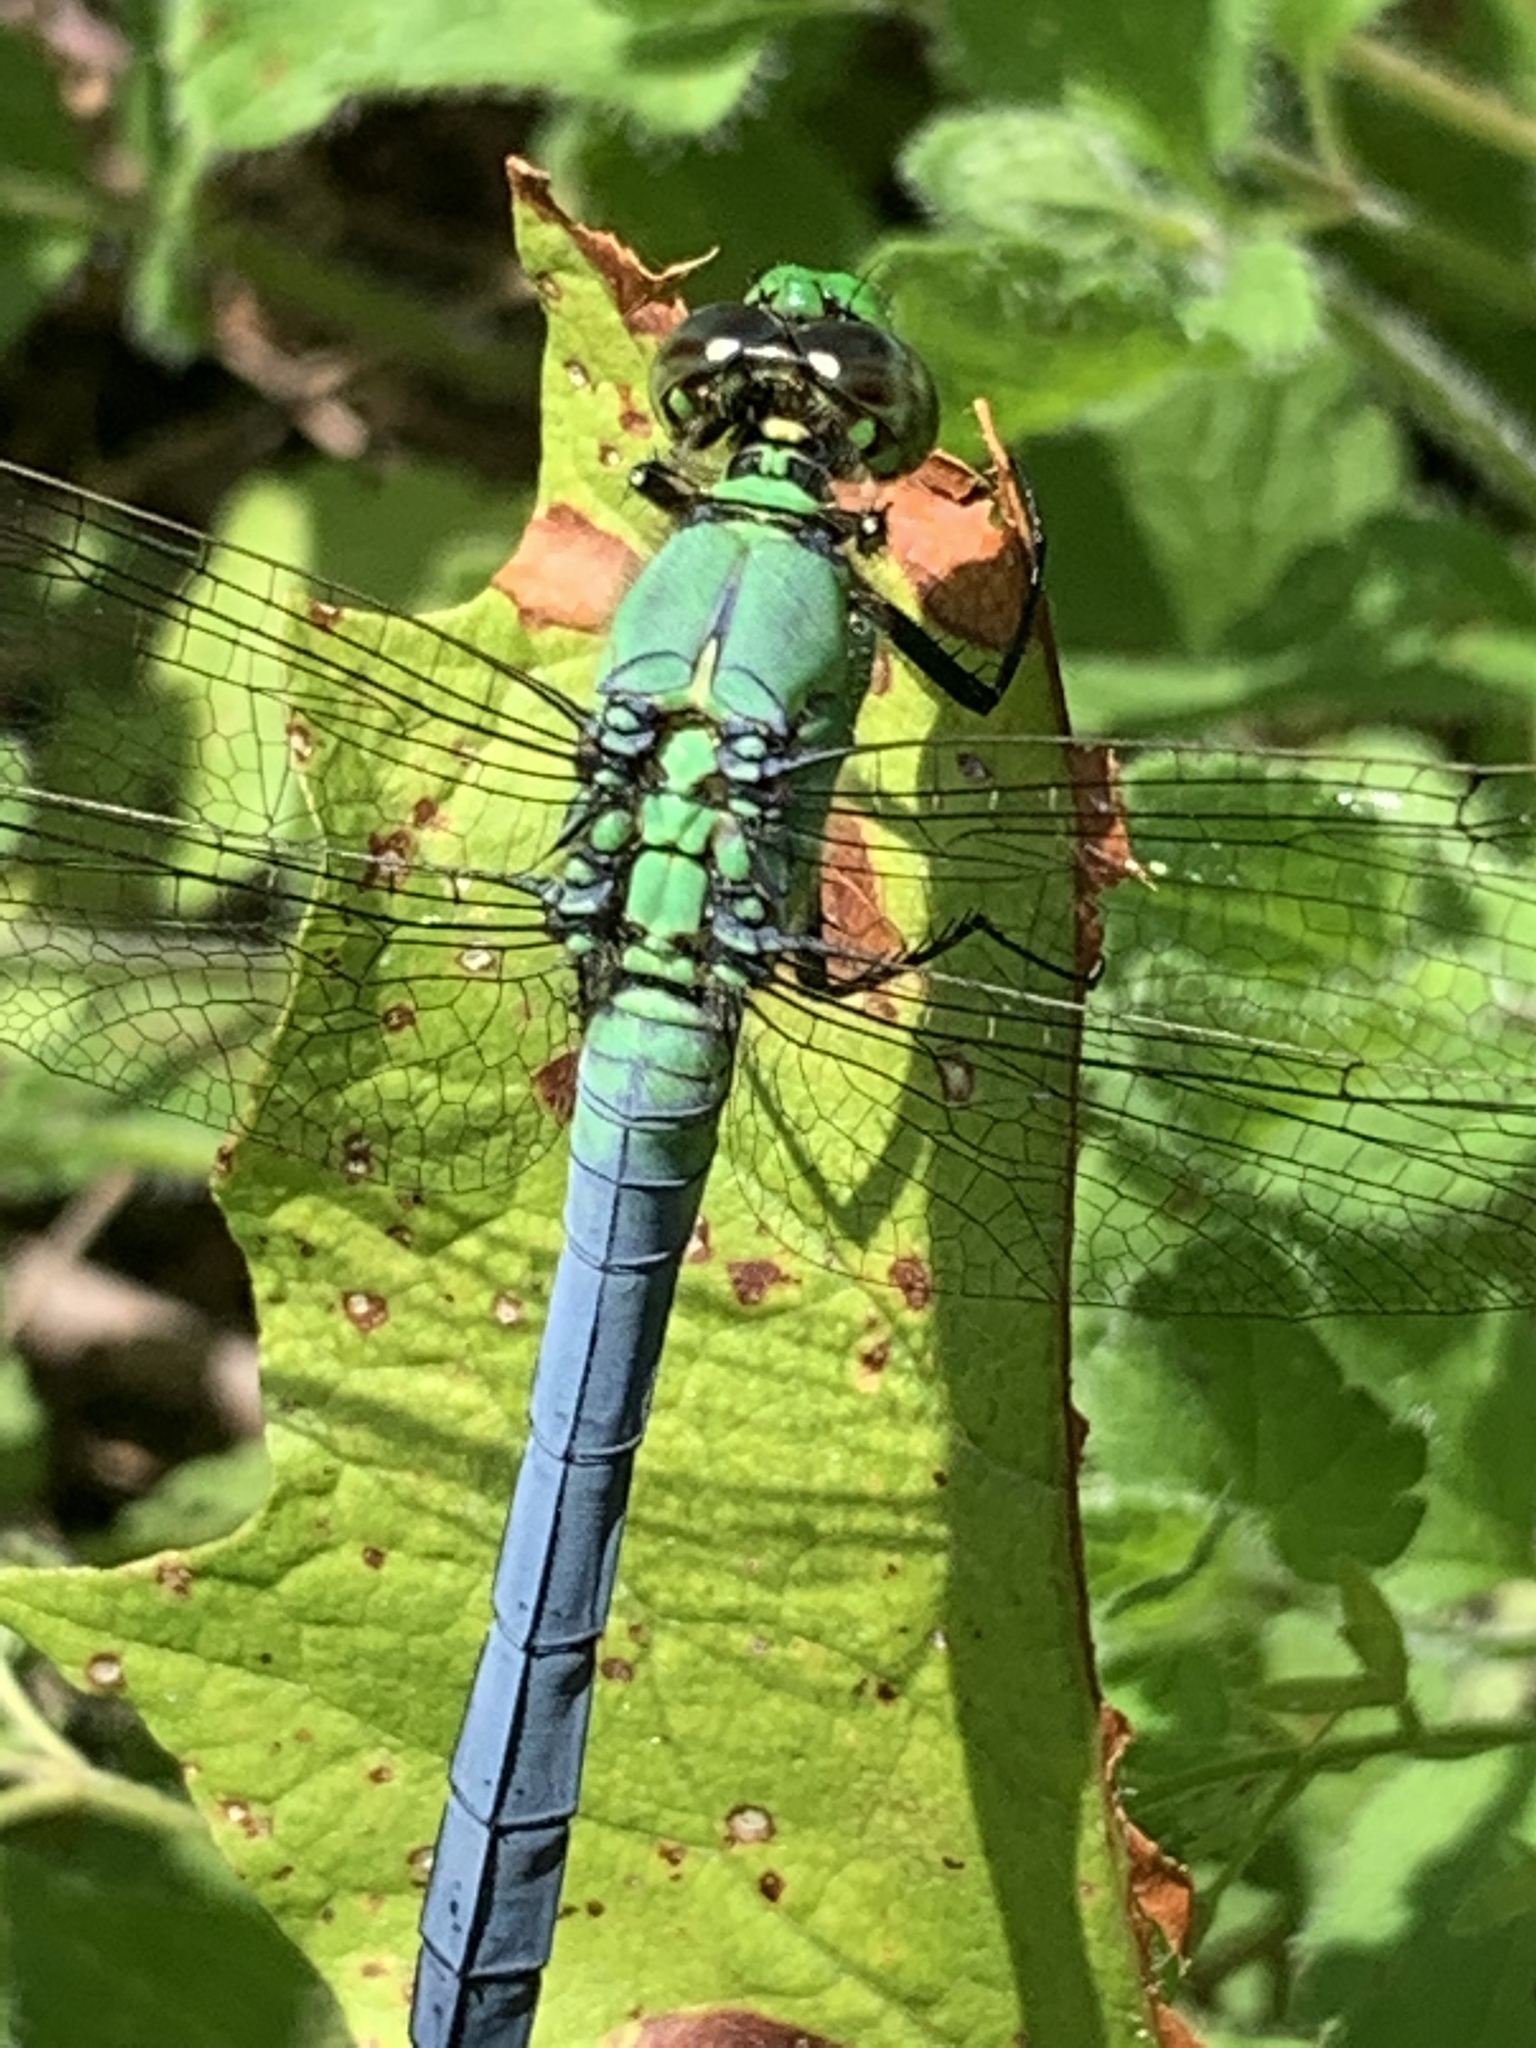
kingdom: Animalia
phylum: Arthropoda
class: Insecta
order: Odonata
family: Libellulidae
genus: Erythemis
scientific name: Erythemis simplicicollis
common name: Eastern pondhawk
